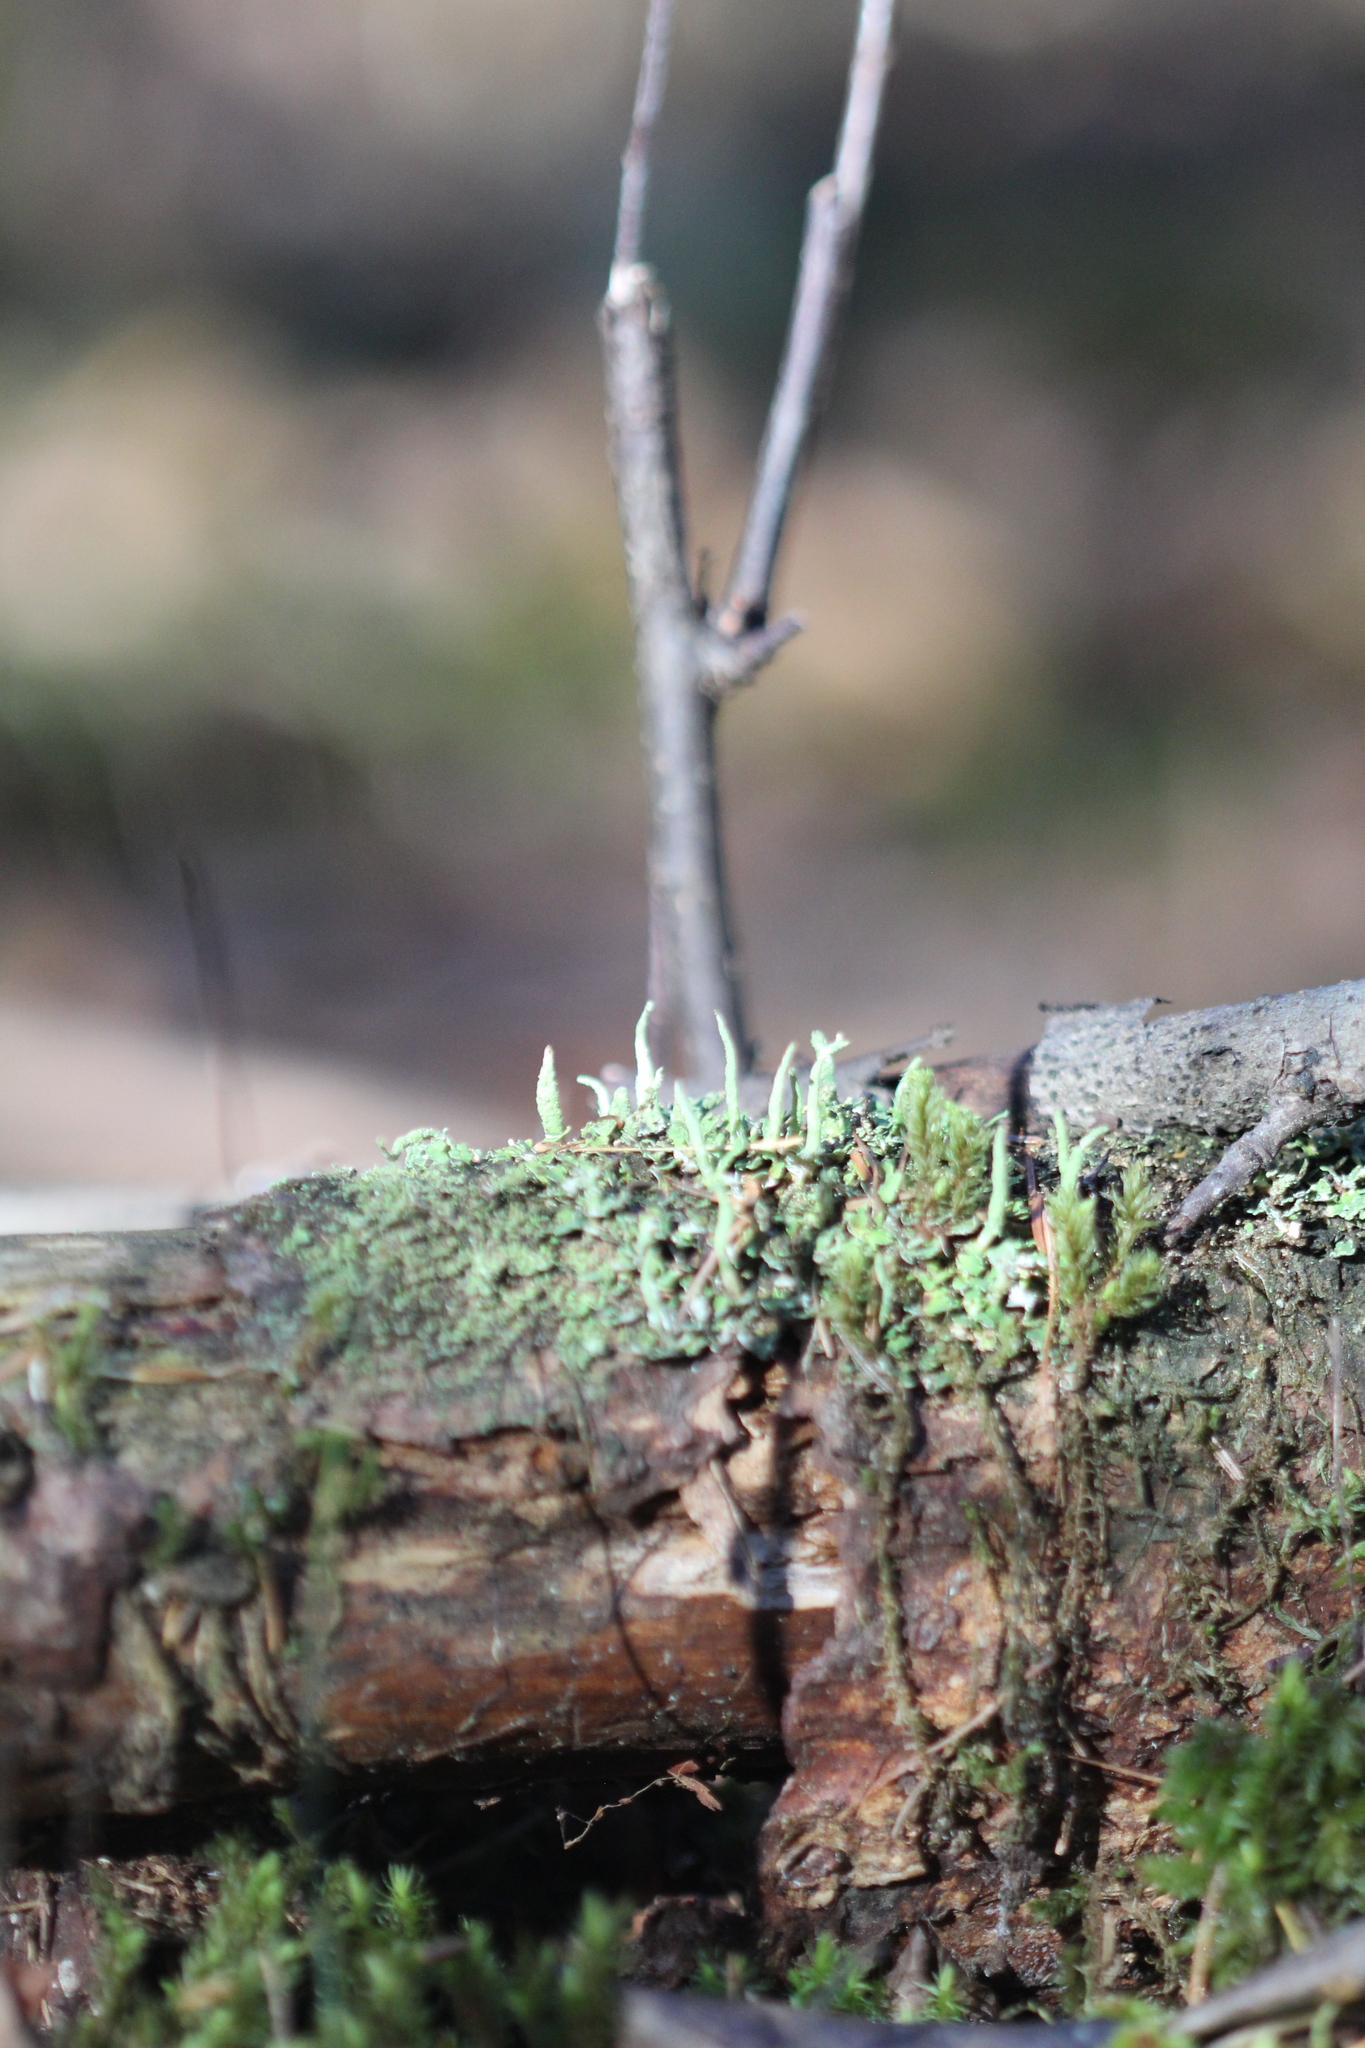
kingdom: Fungi
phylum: Ascomycota
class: Lecanoromycetes
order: Lecanorales
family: Cladoniaceae
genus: Cladonia
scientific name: Cladonia coniocraea
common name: Common powderhorn
